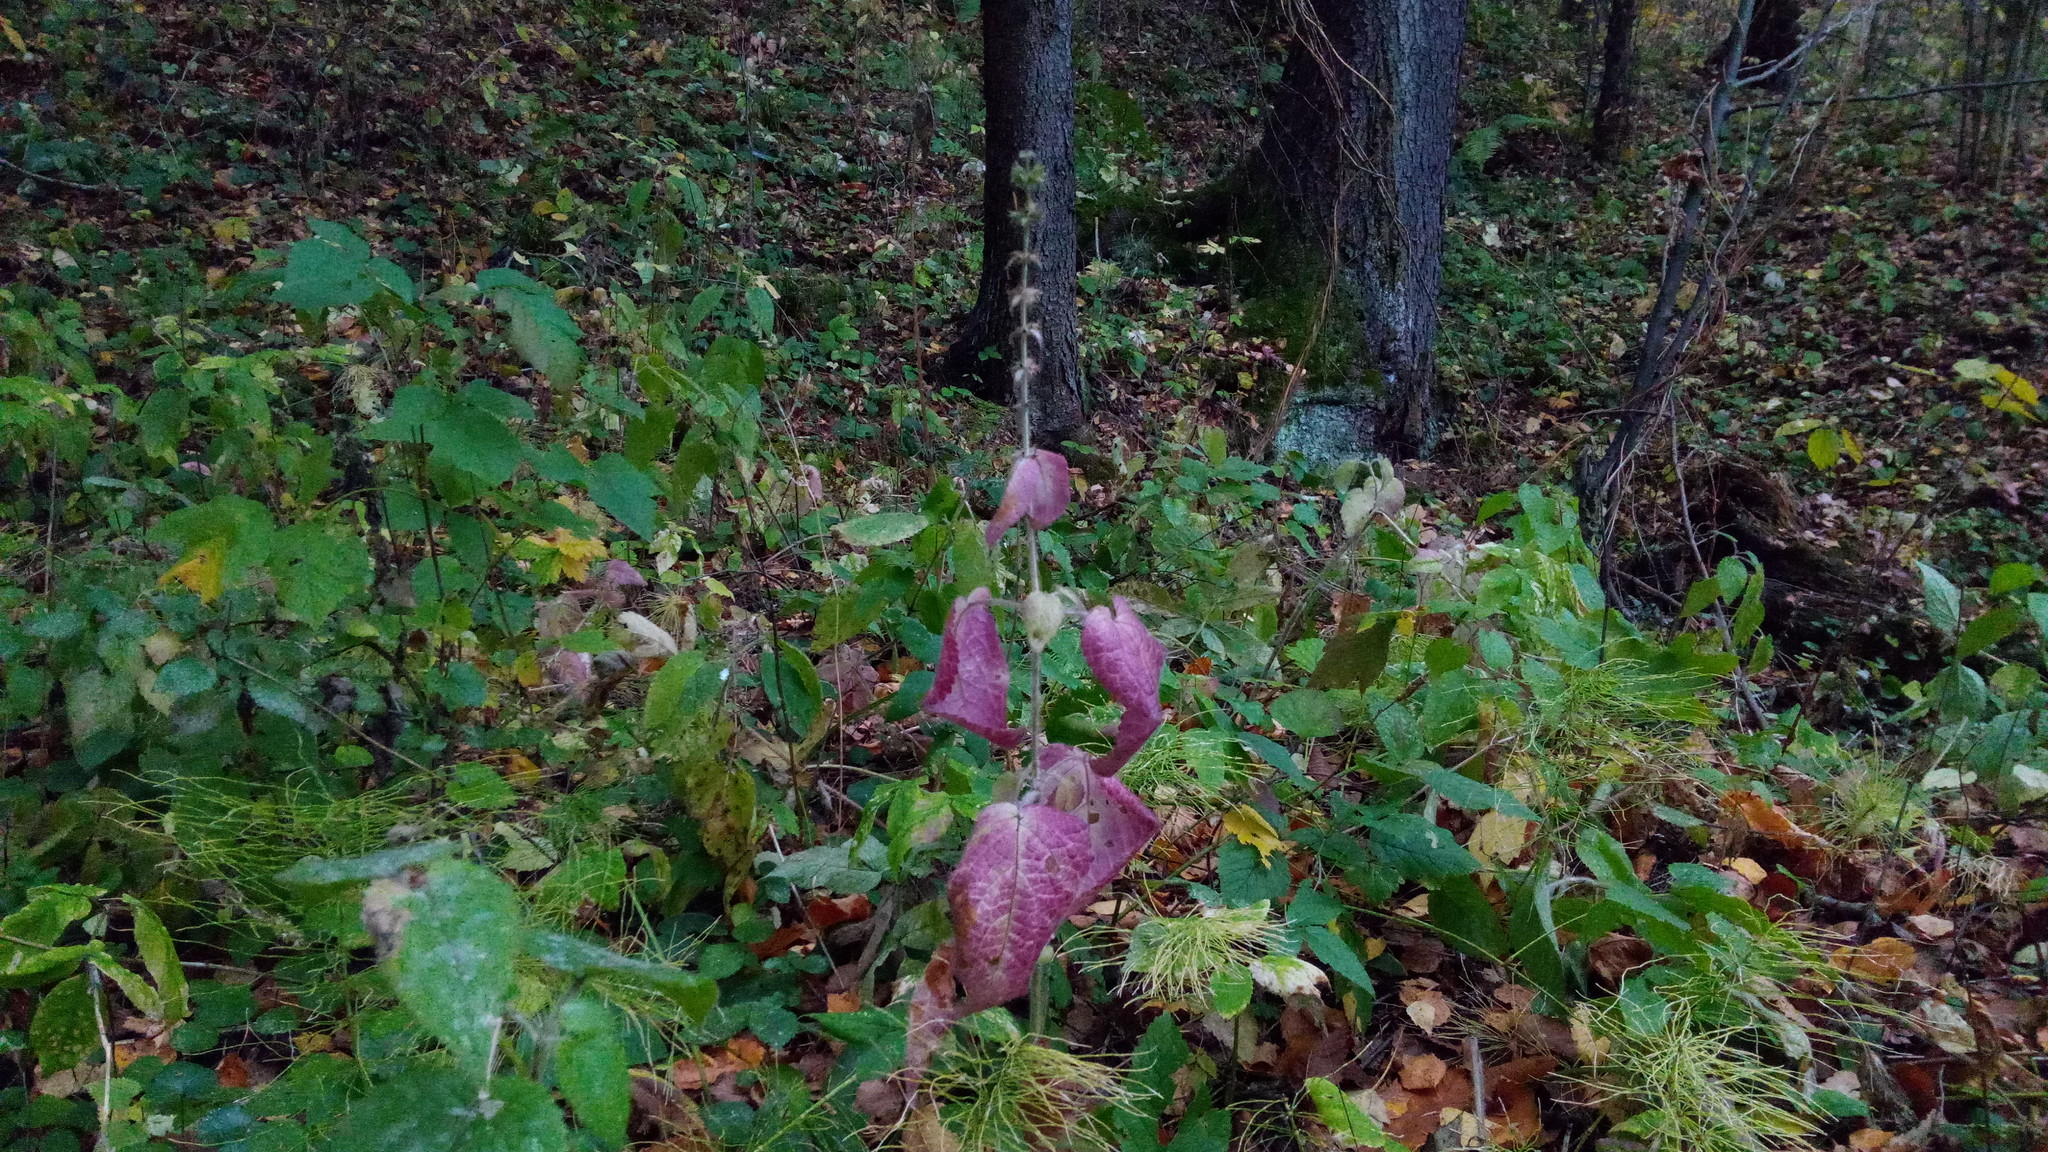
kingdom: Plantae
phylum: Tracheophyta
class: Magnoliopsida
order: Lamiales
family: Lamiaceae
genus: Stachys
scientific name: Stachys sylvatica
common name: Hedge woundwort
